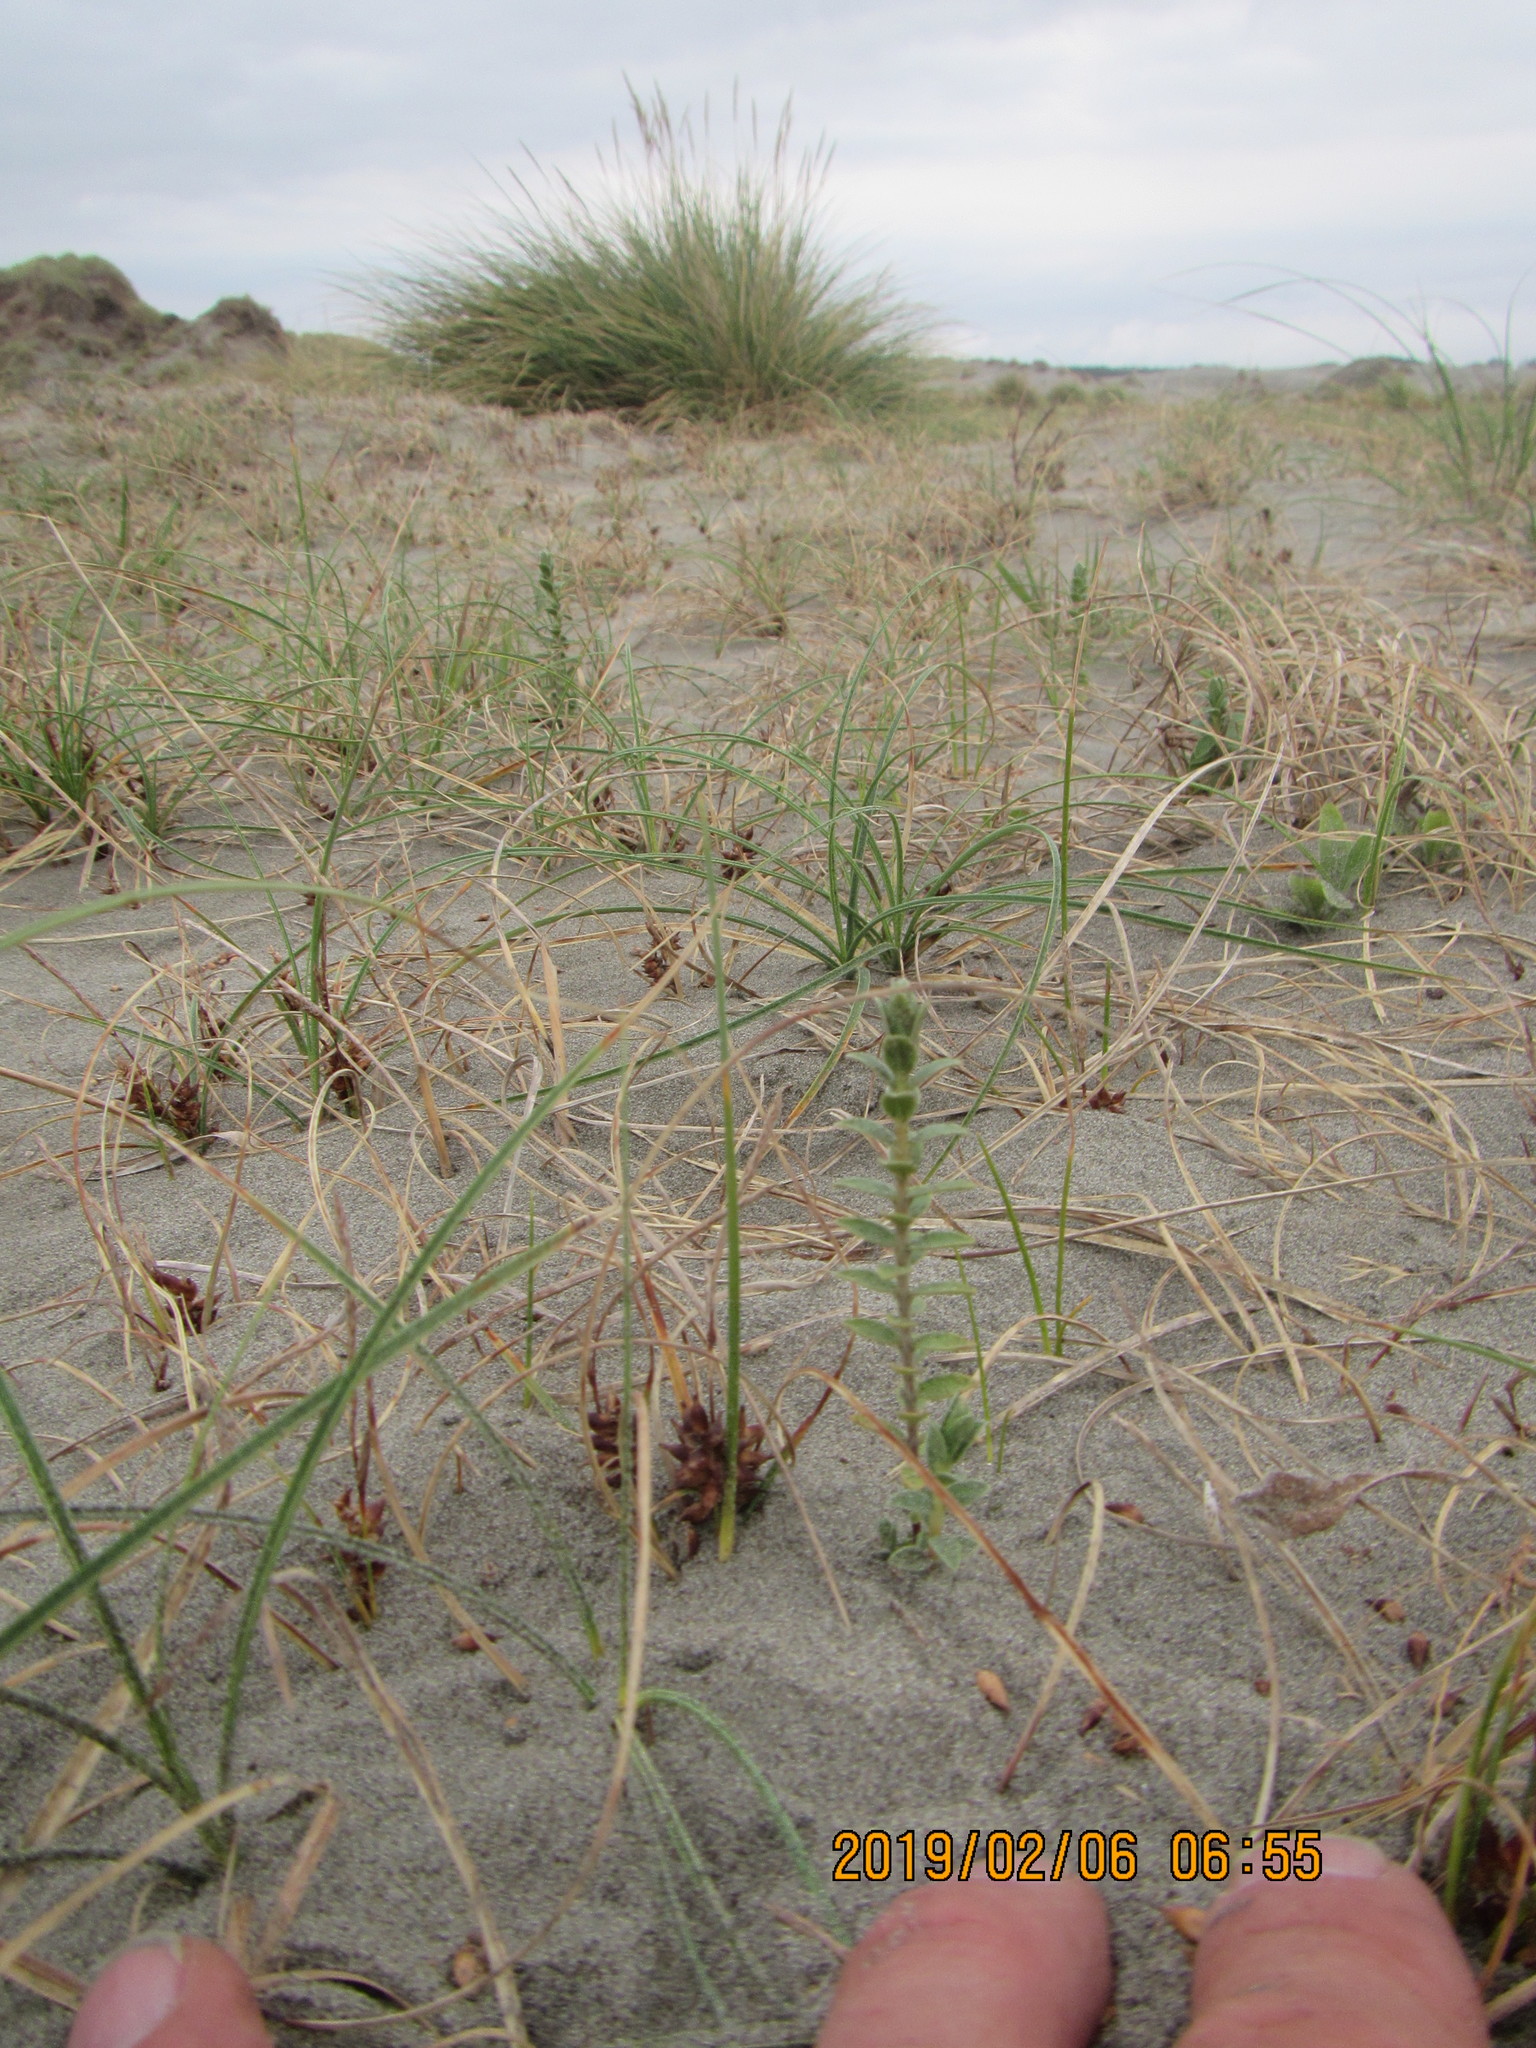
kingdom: Plantae
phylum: Tracheophyta
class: Magnoliopsida
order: Malvales
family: Thymelaeaceae
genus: Pimelea
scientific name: Pimelea villosa
